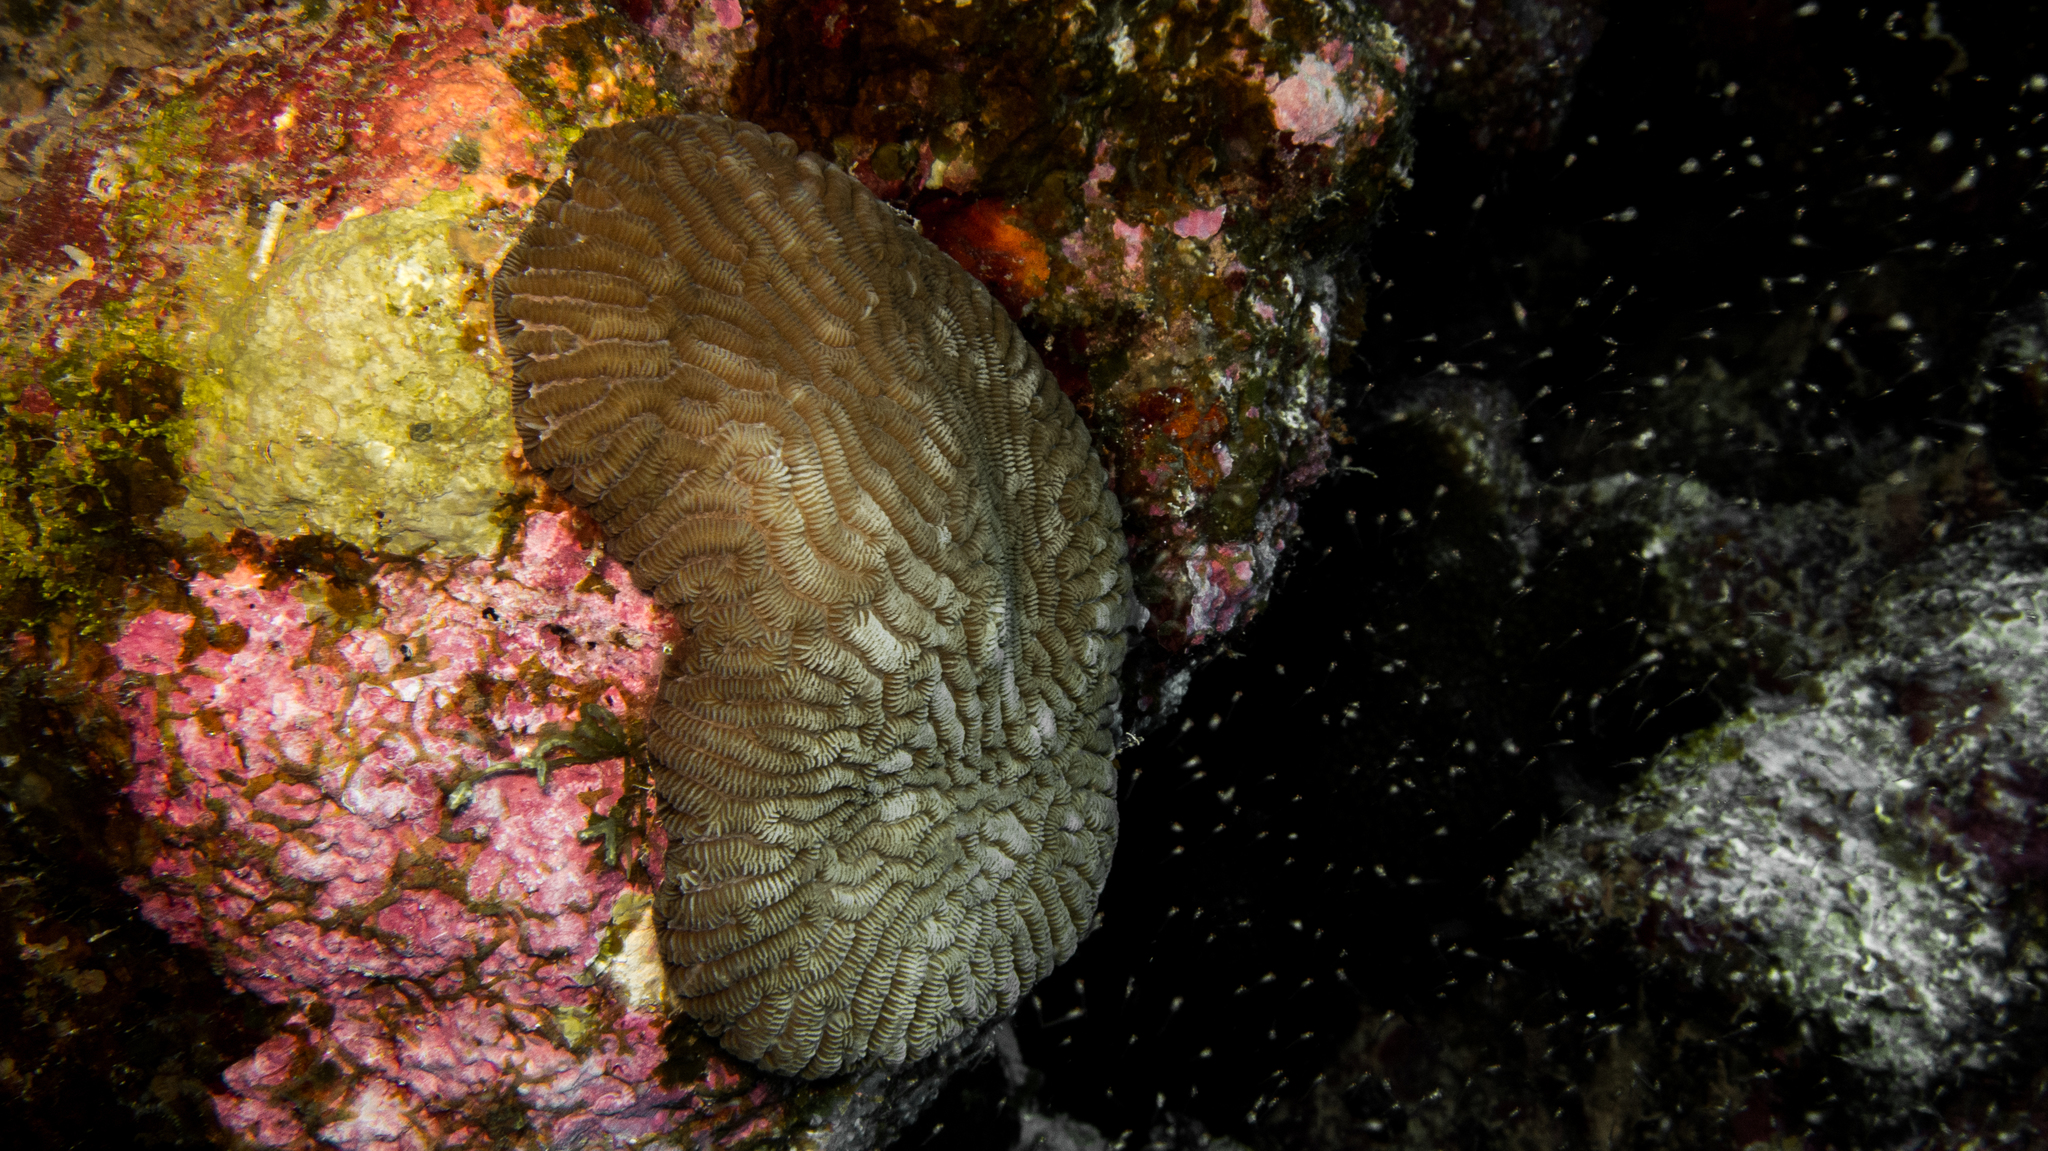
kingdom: Animalia
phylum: Cnidaria
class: Anthozoa
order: Scleractinia
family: Merulinidae
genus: Leptoria
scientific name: Leptoria phrygia
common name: Least valley coral
